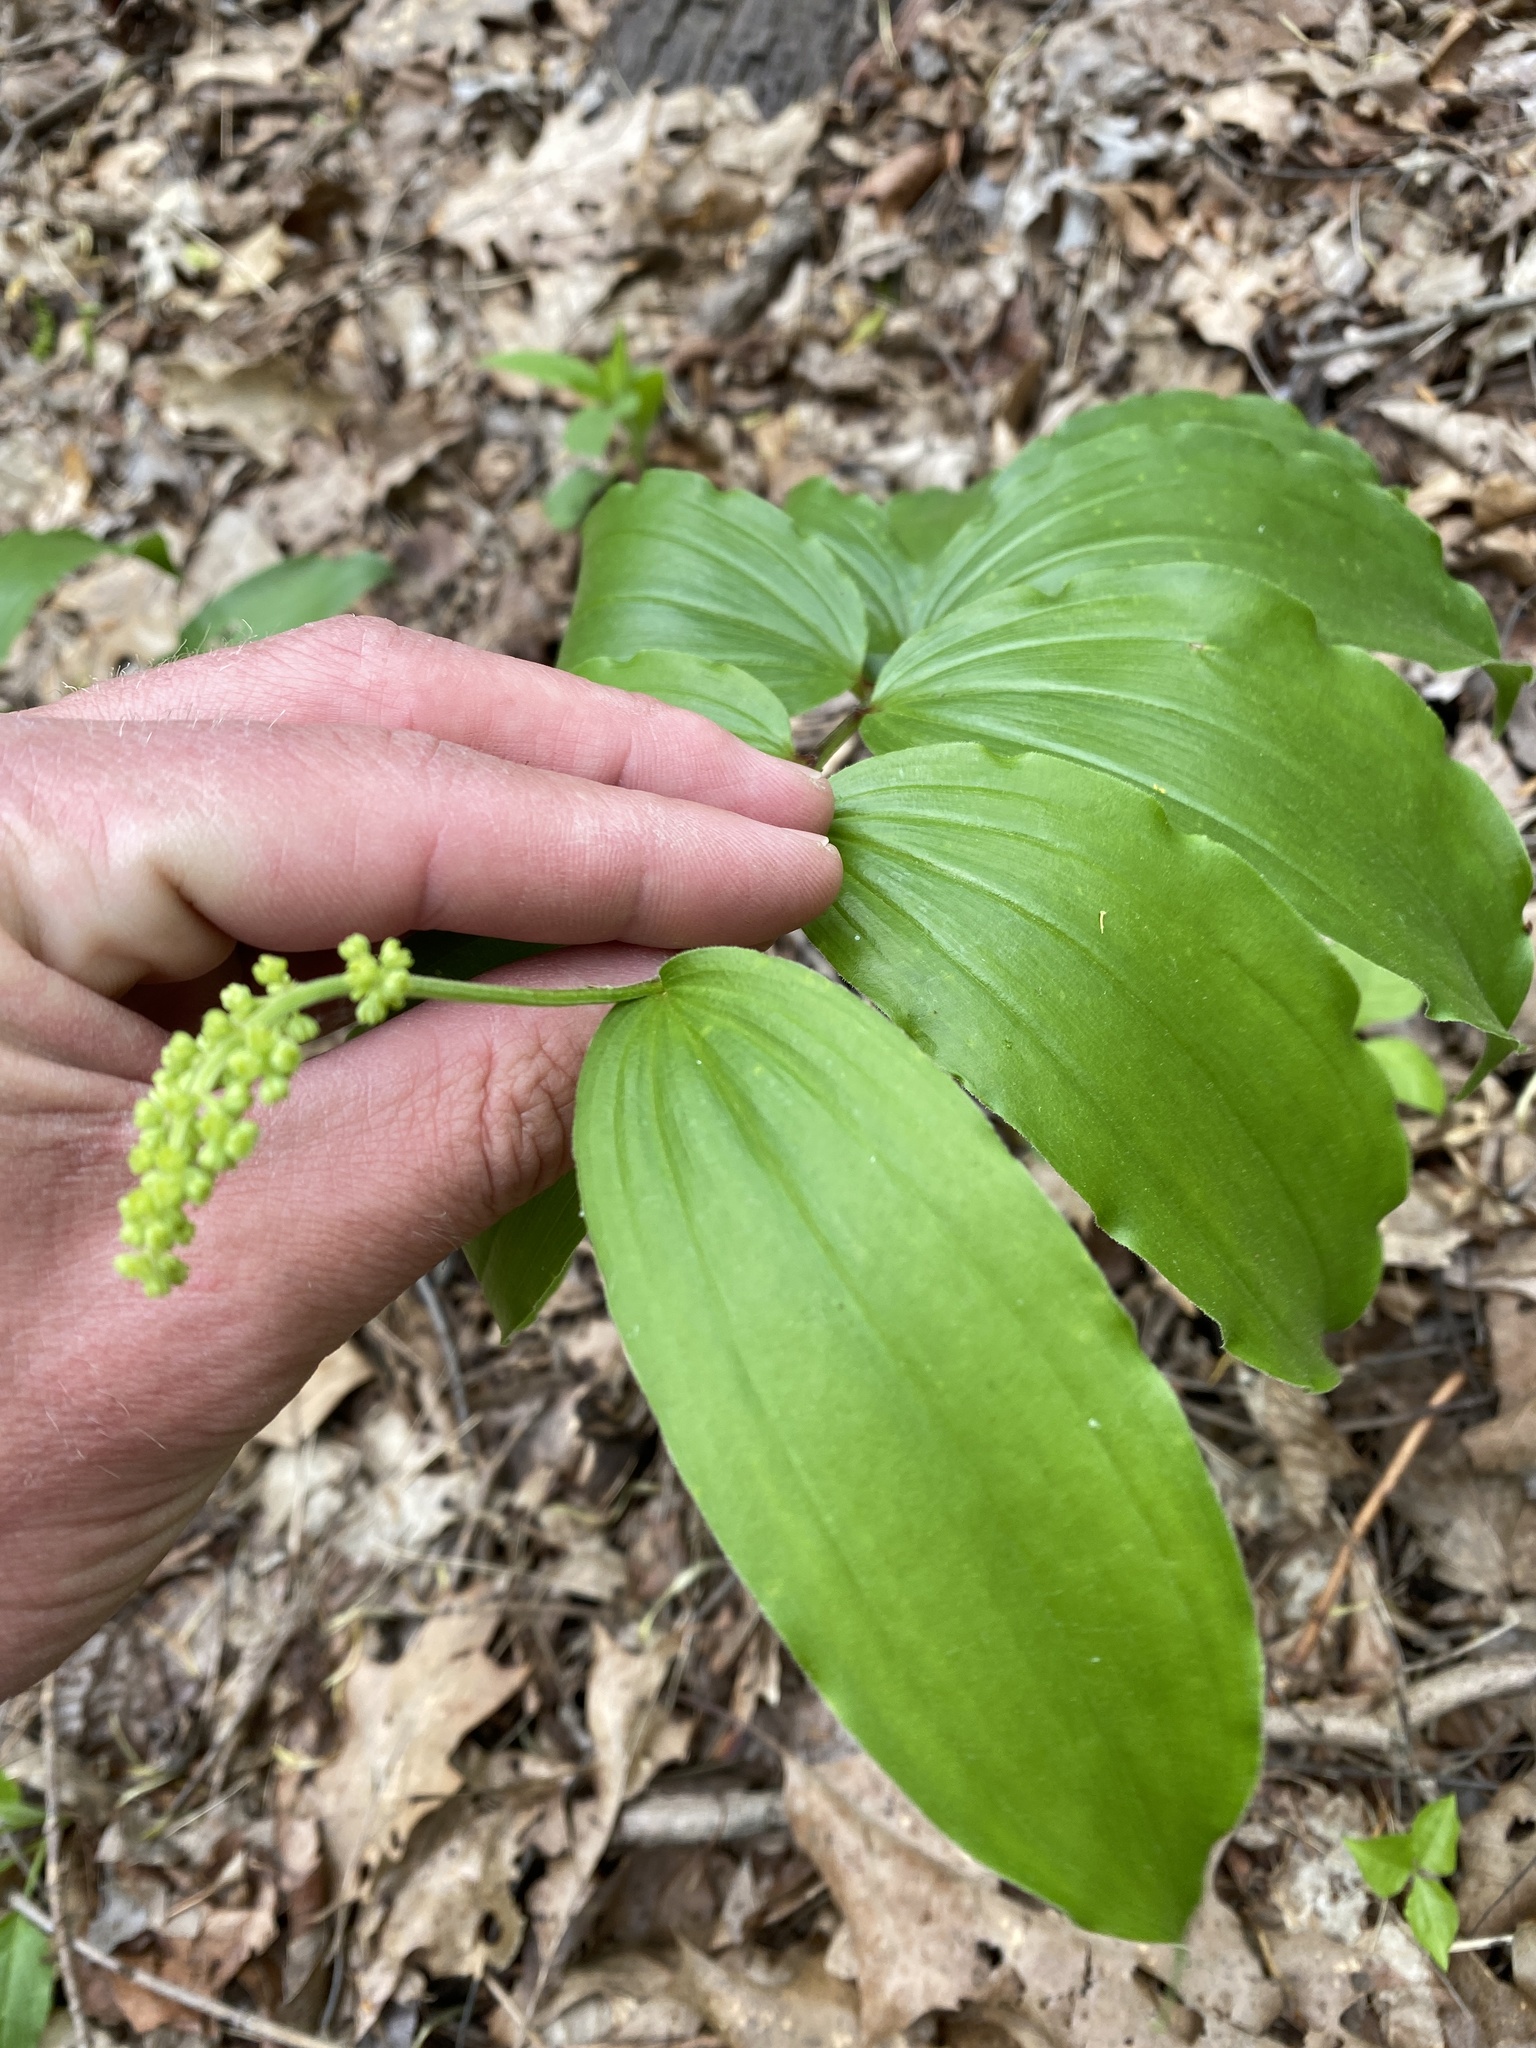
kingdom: Plantae
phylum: Tracheophyta
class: Liliopsida
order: Asparagales
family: Asparagaceae
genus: Maianthemum
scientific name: Maianthemum racemosum
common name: False spikenard
